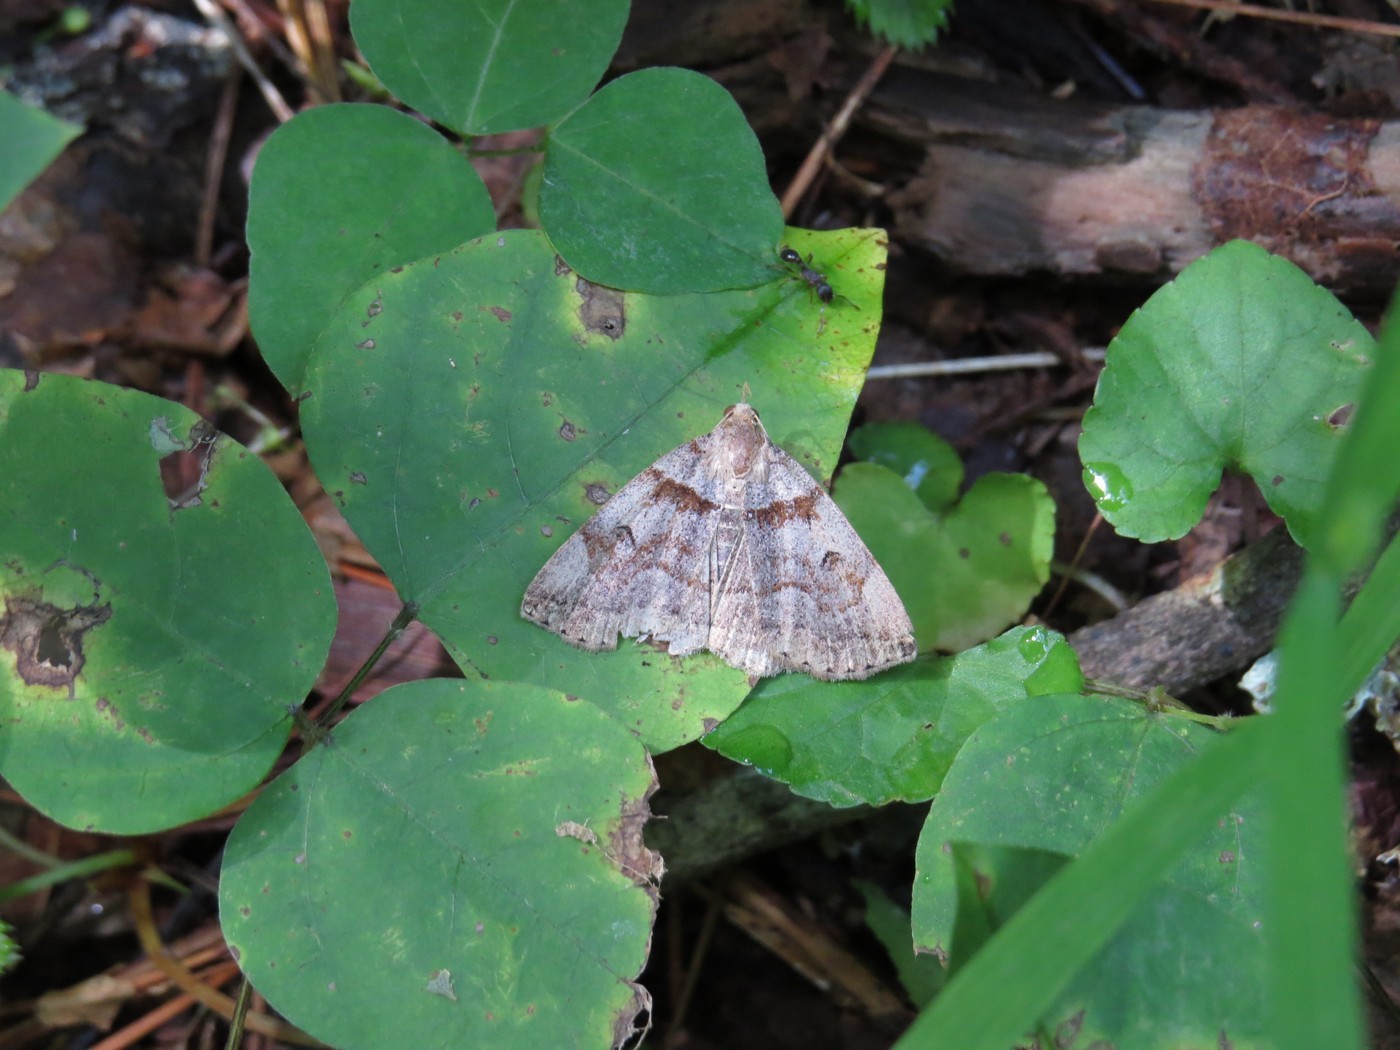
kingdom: Animalia
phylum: Arthropoda
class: Insecta
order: Lepidoptera
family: Erebidae
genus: Zanclognatha
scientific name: Zanclognatha laevigata
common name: Variable fan-foot
